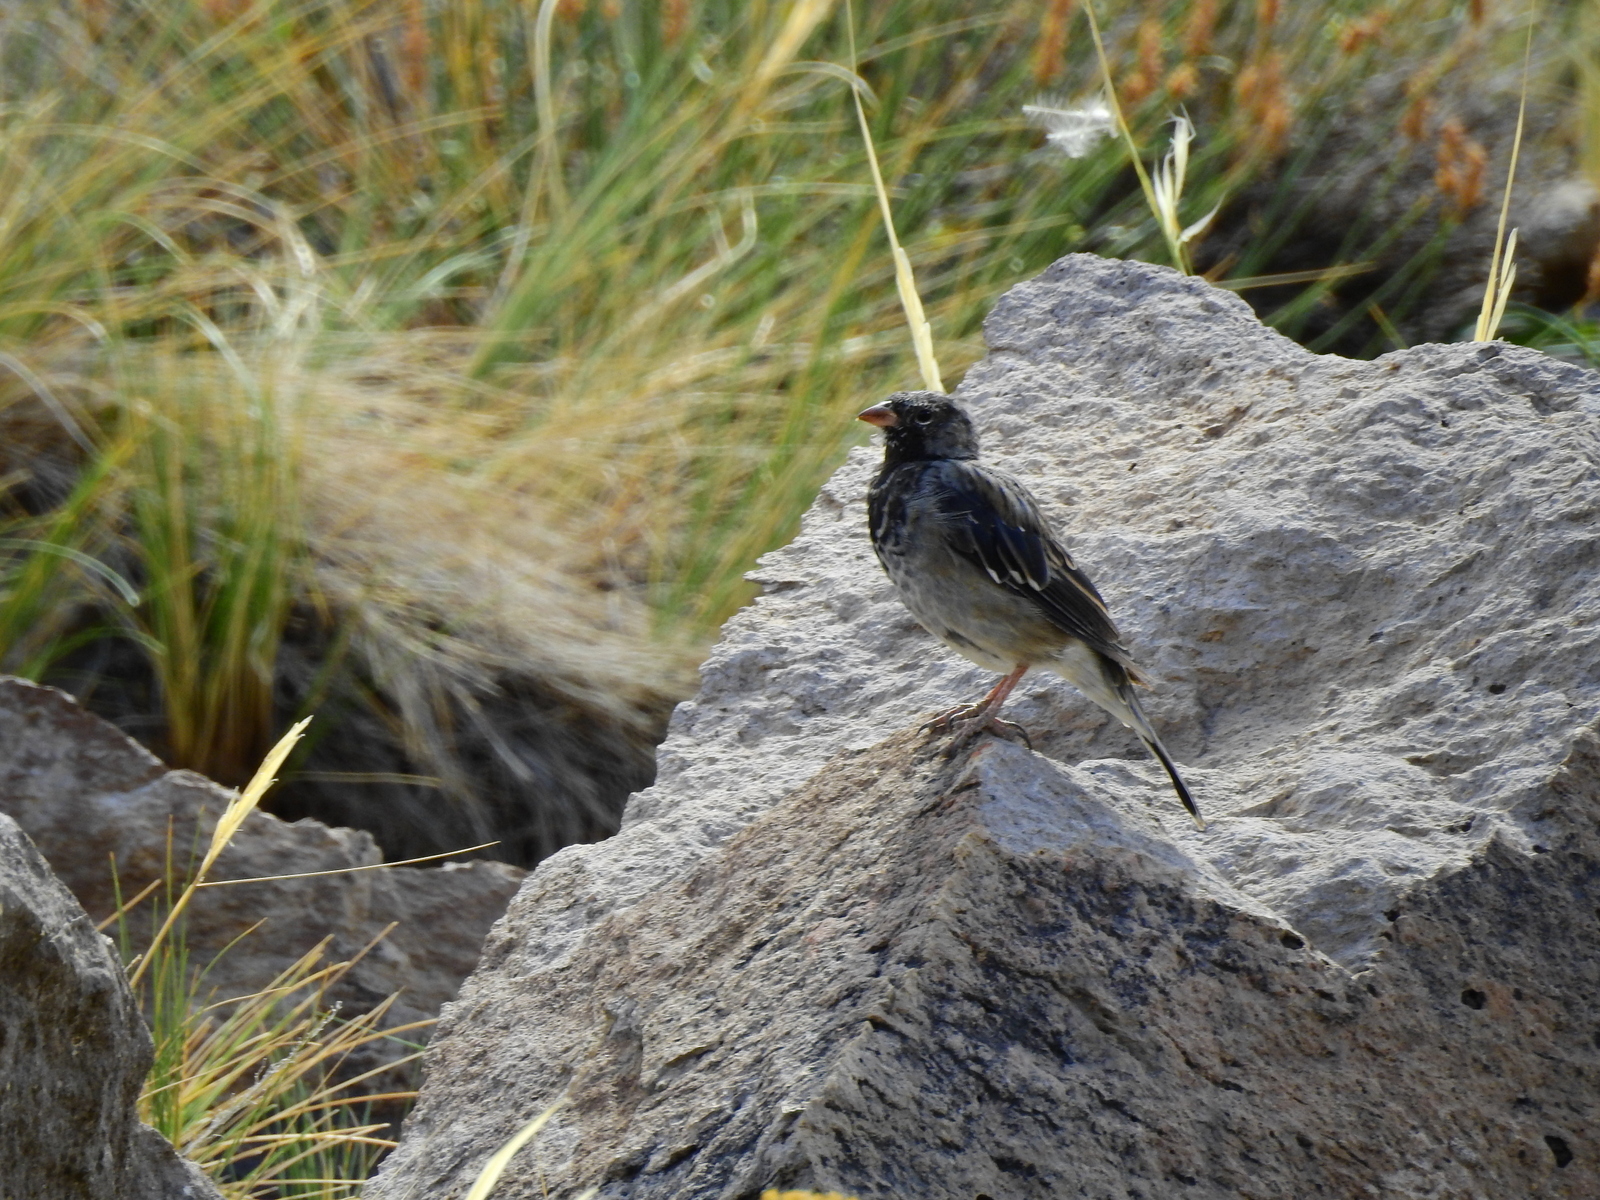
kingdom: Animalia
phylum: Chordata
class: Aves
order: Passeriformes
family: Thraupidae
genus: Rhopospina
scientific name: Rhopospina fruticeti
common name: Mourning sierra finch
